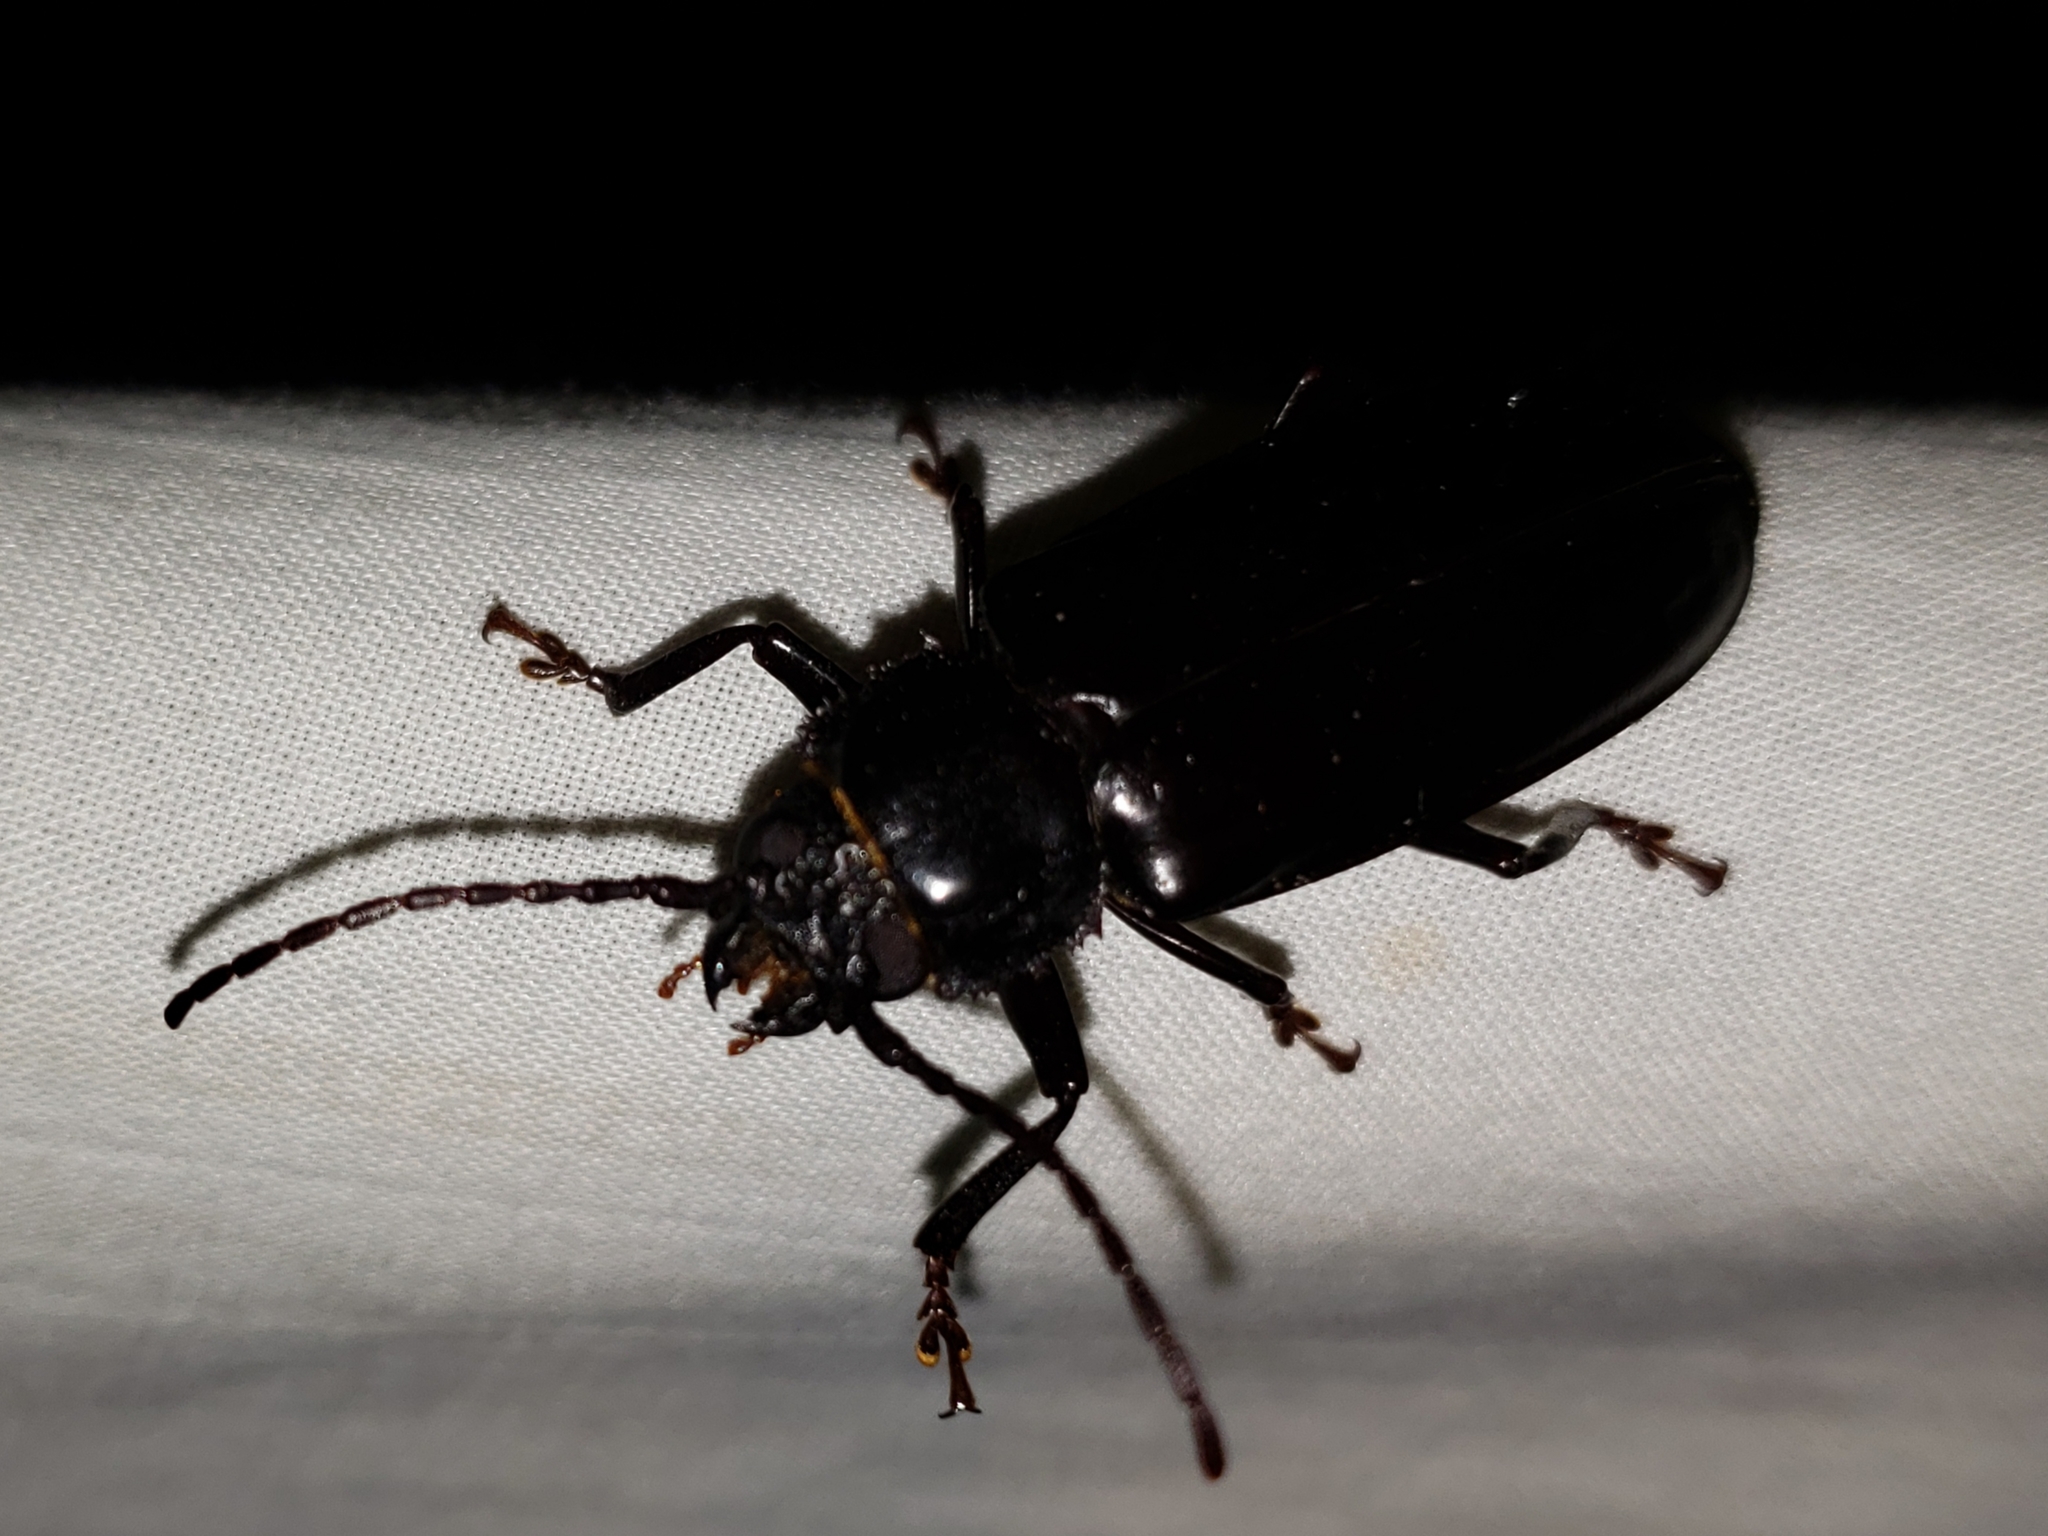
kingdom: Animalia
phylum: Arthropoda
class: Insecta
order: Coleoptera
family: Cerambycidae
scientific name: Cerambycidae
